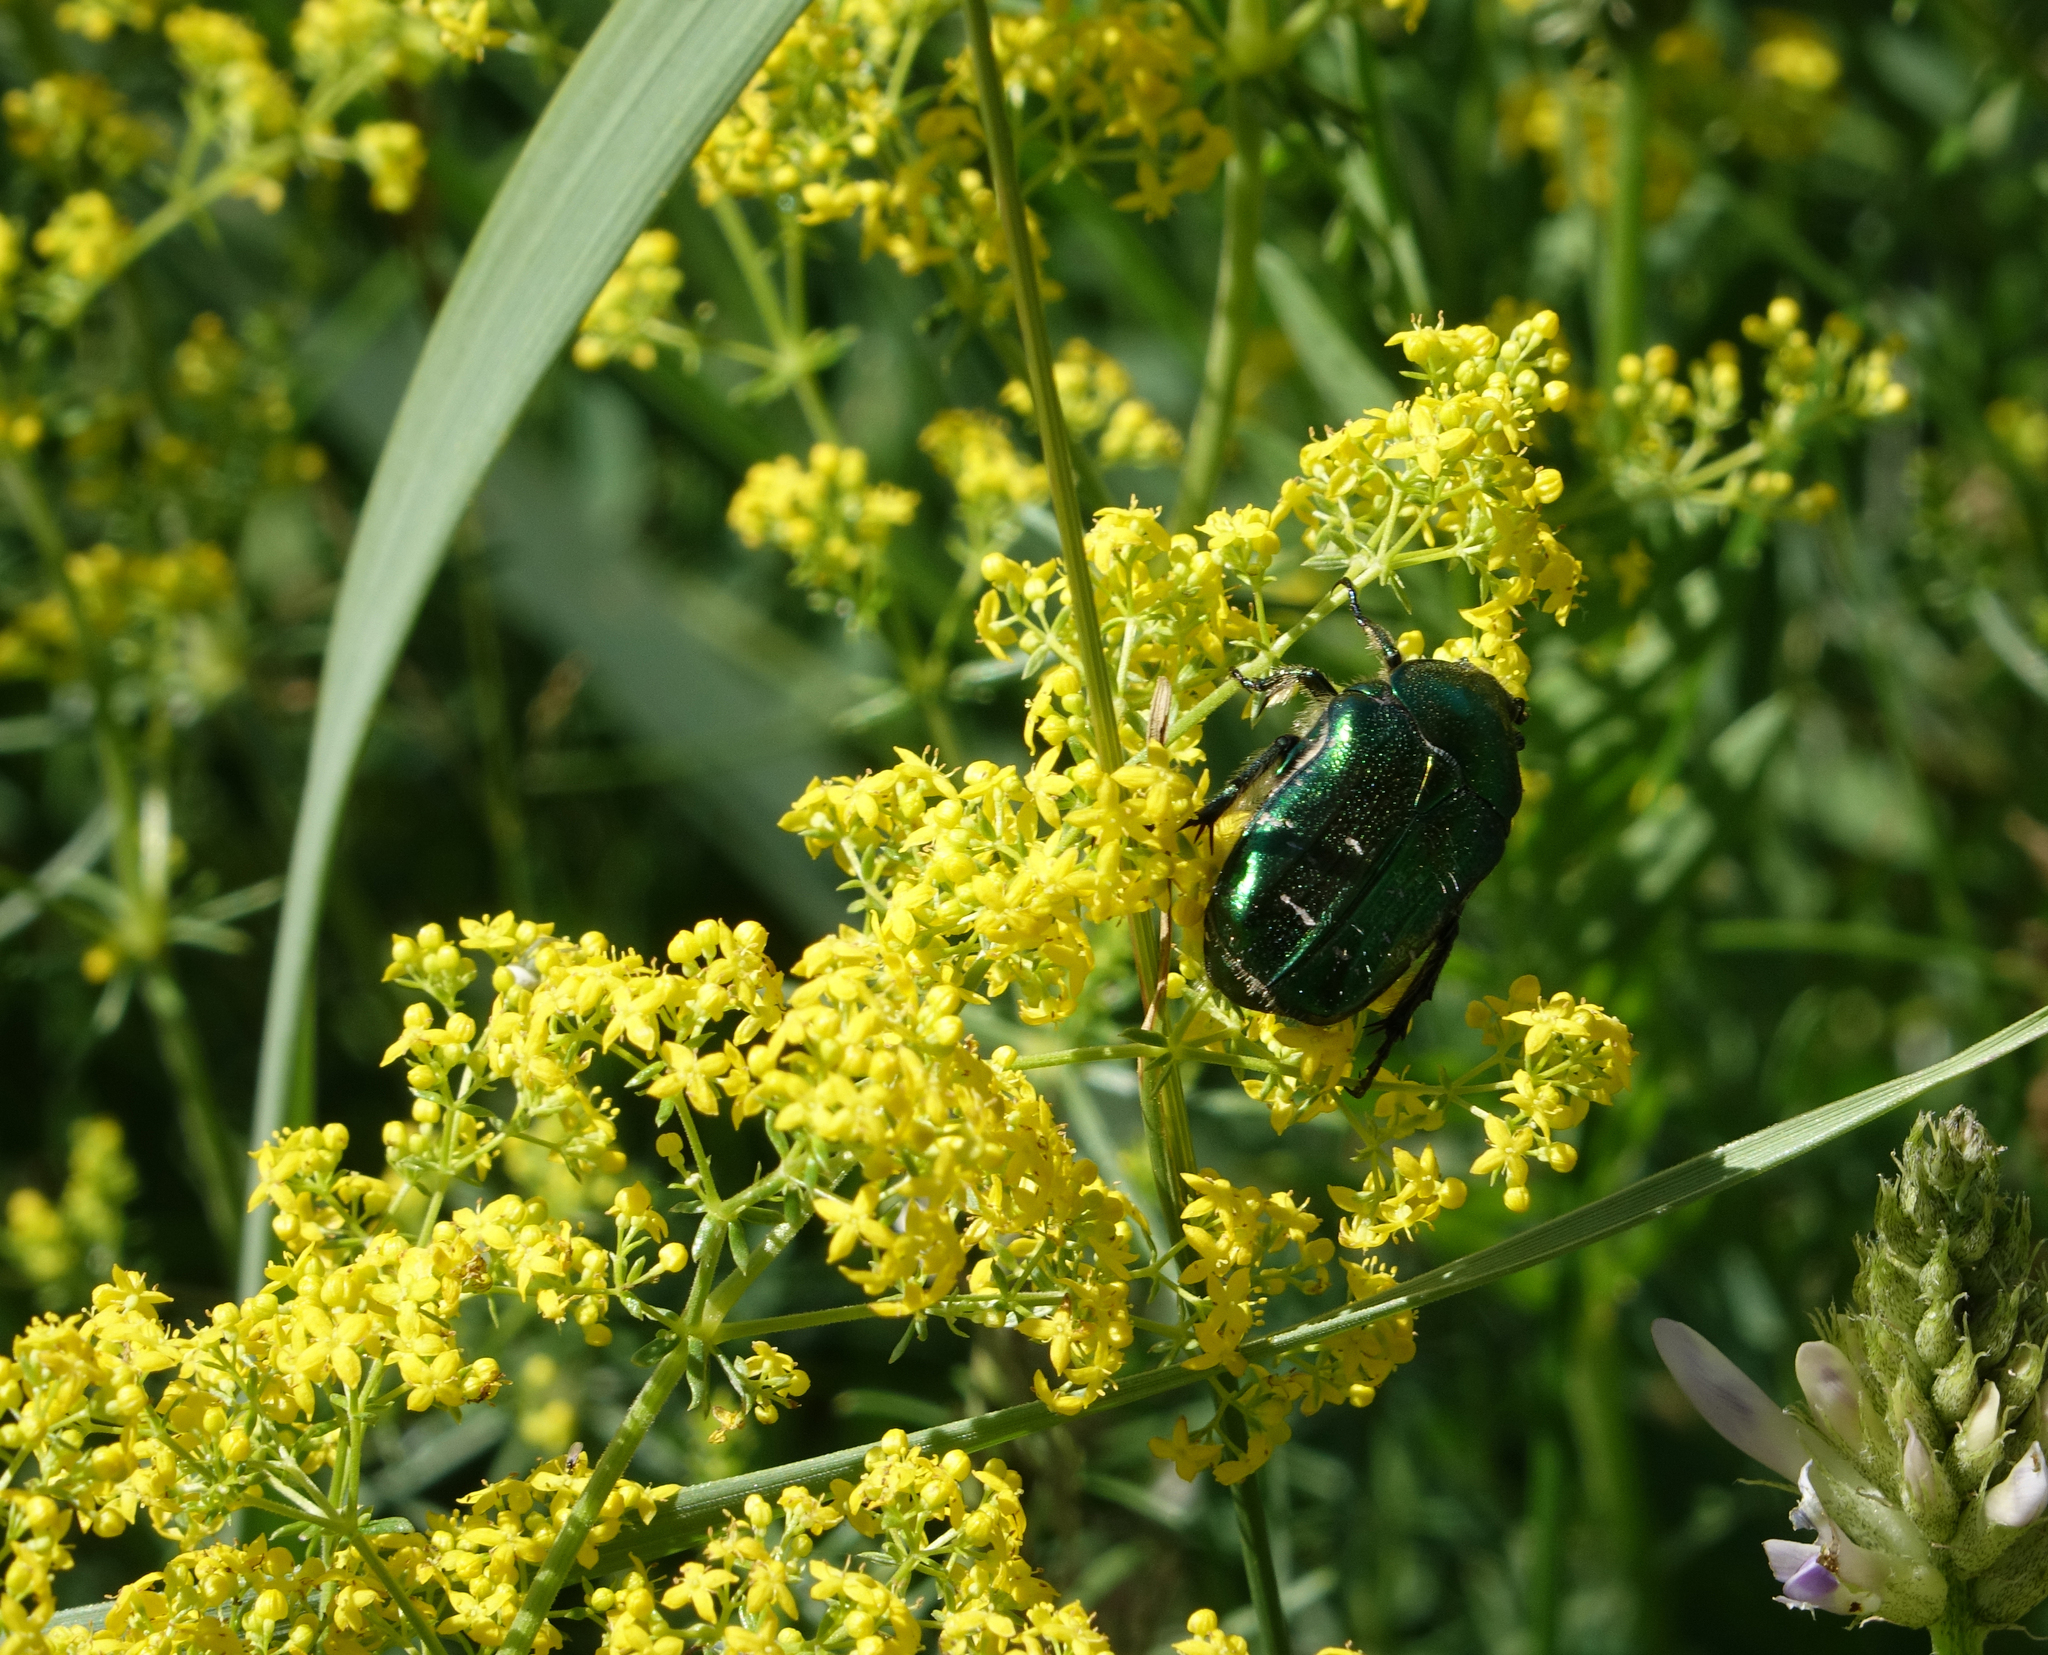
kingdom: Plantae
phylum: Tracheophyta
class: Magnoliopsida
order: Gentianales
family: Rubiaceae
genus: Galium
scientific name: Galium verum
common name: Lady's bedstraw
